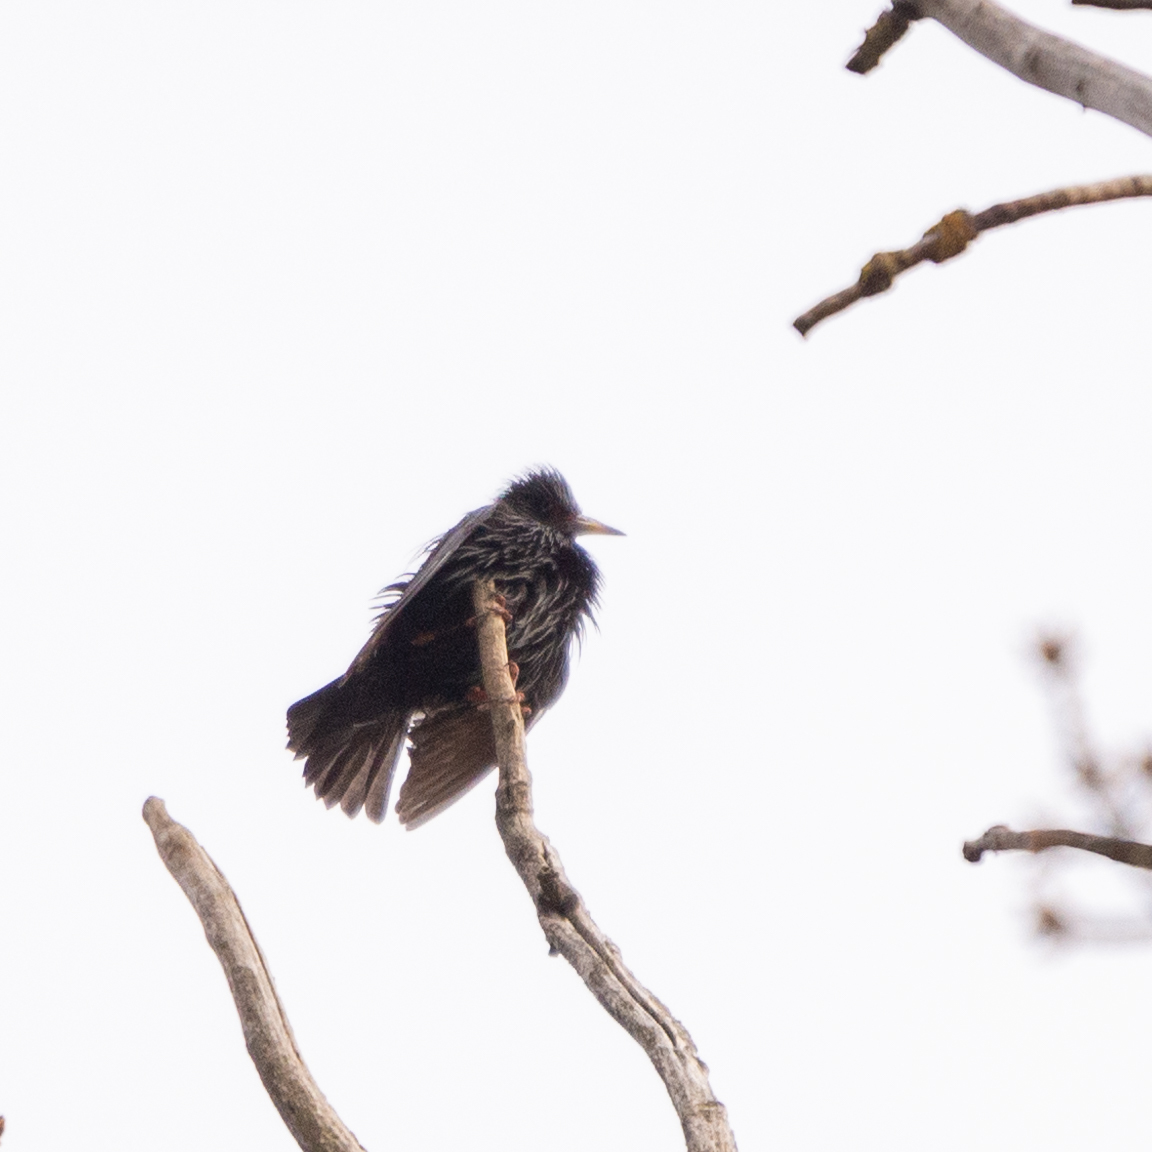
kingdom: Animalia
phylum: Chordata
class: Aves
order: Passeriformes
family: Sturnidae
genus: Sturnus
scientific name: Sturnus unicolor
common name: Spotless starling
